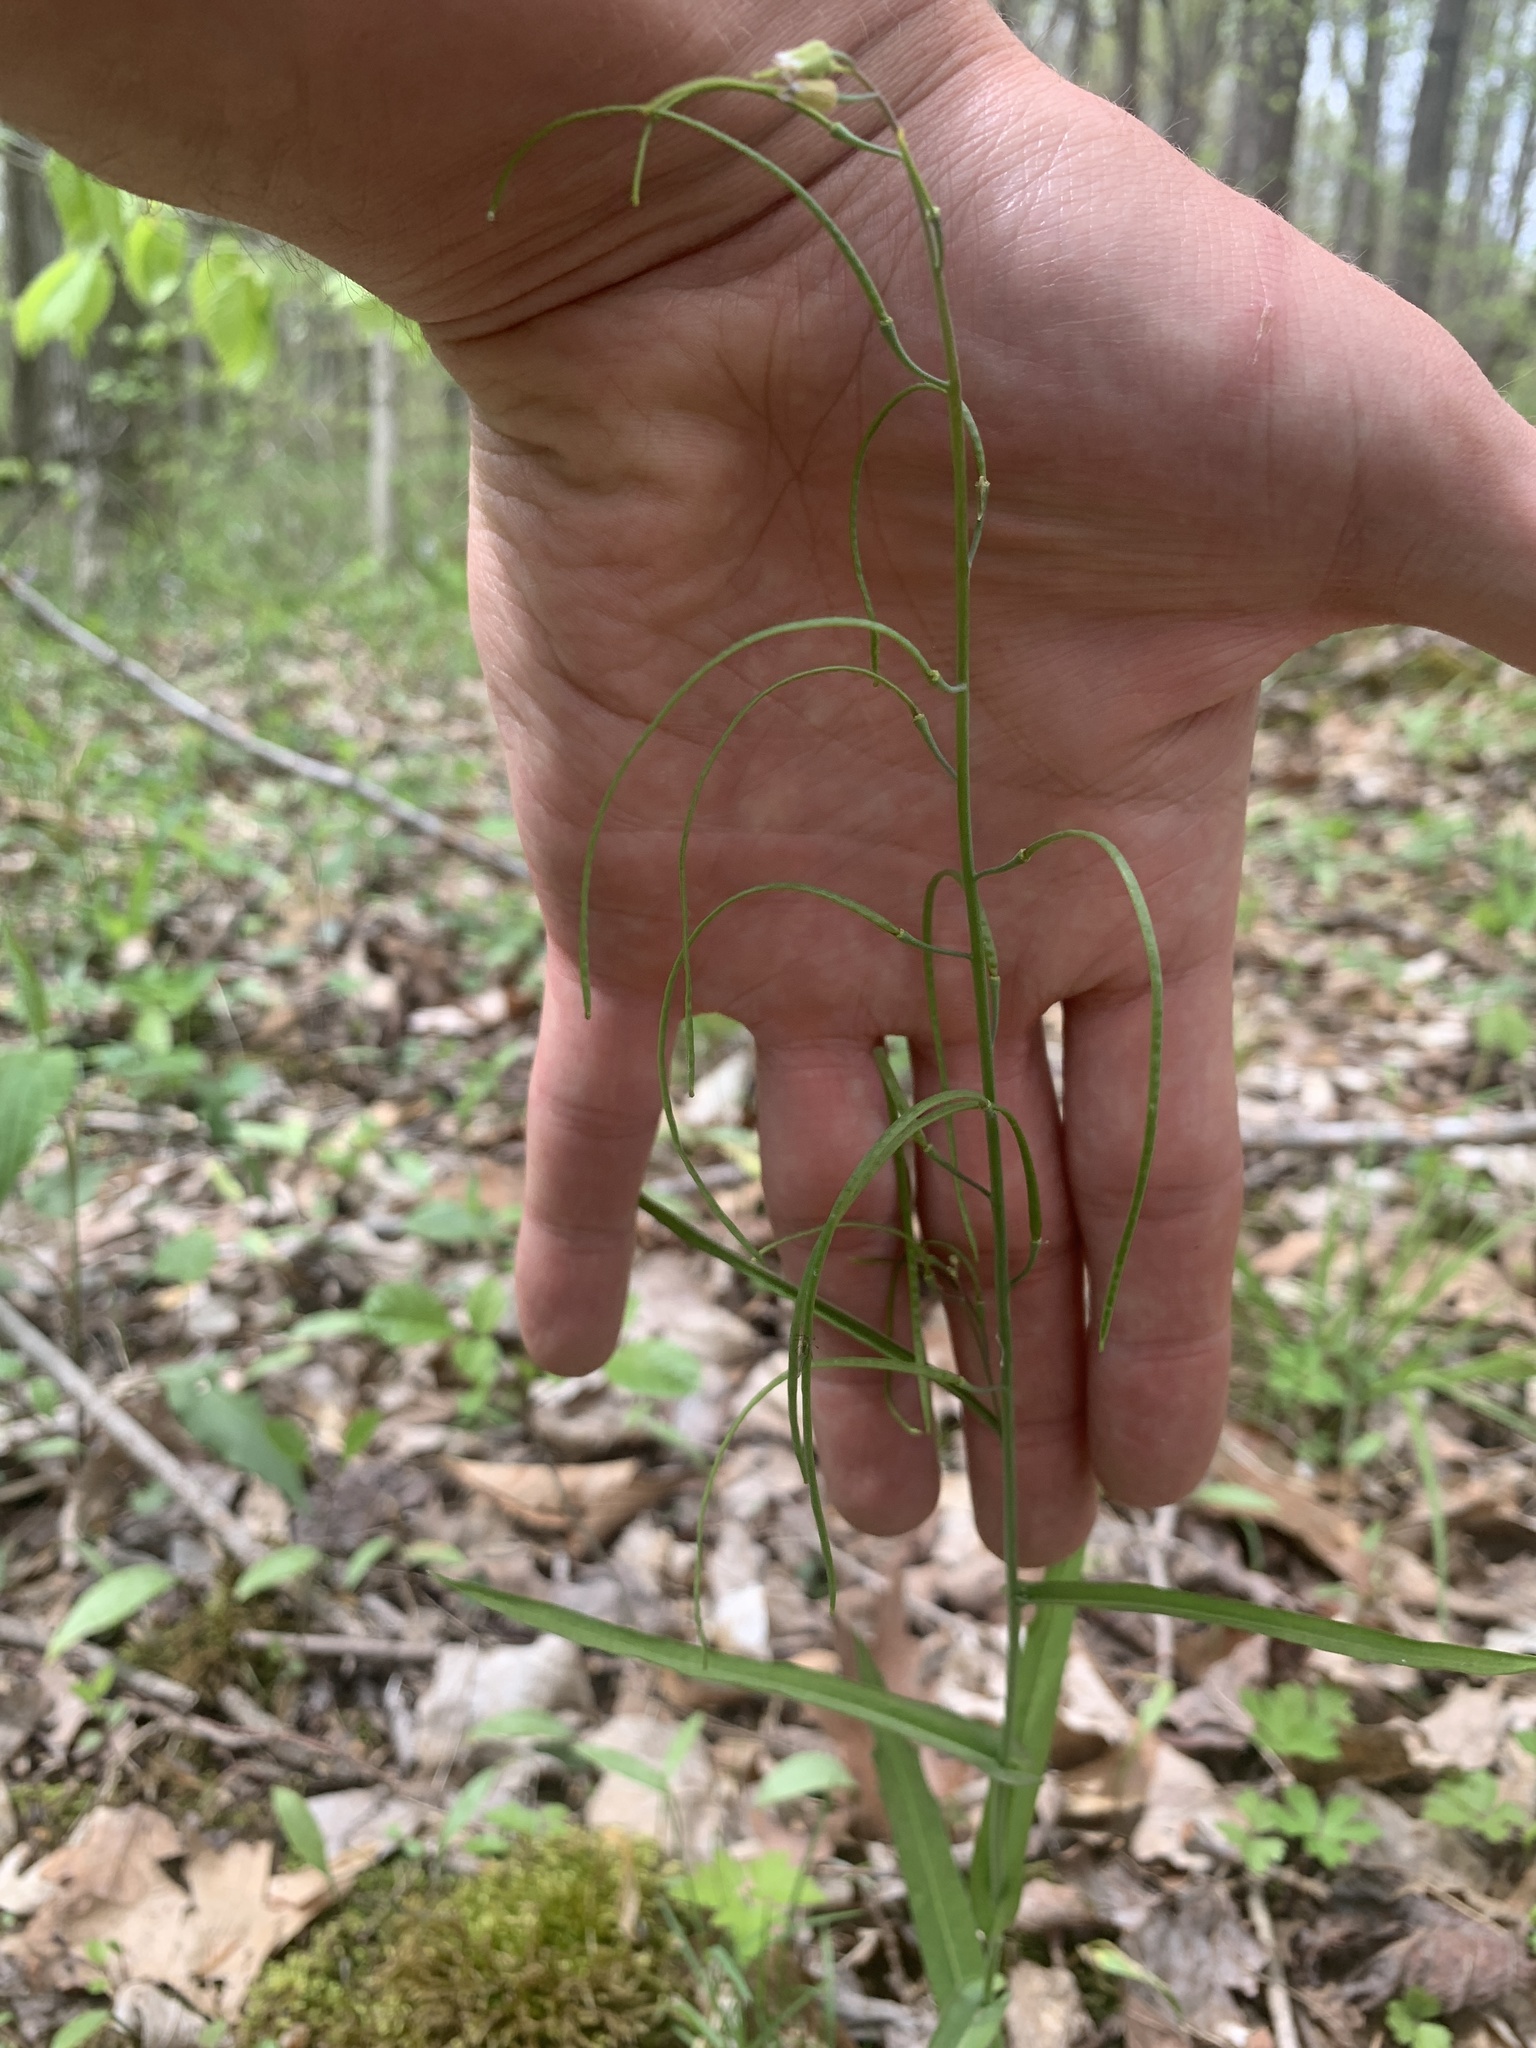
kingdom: Plantae
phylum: Tracheophyta
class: Magnoliopsida
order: Brassicales
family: Brassicaceae
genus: Borodinia
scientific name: Borodinia laevigata
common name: Smooth rockcress
